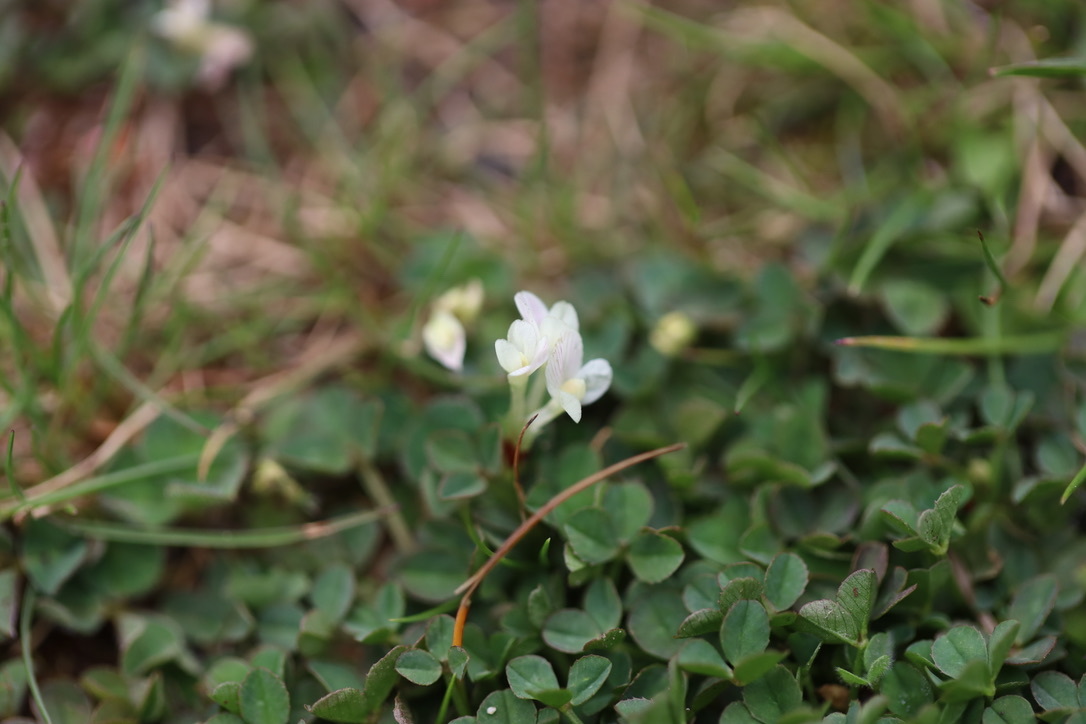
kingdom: Plantae
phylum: Tracheophyta
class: Magnoliopsida
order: Fabales
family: Fabaceae
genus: Trifolium
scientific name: Trifolium subterraneum
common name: Subterranean clover
